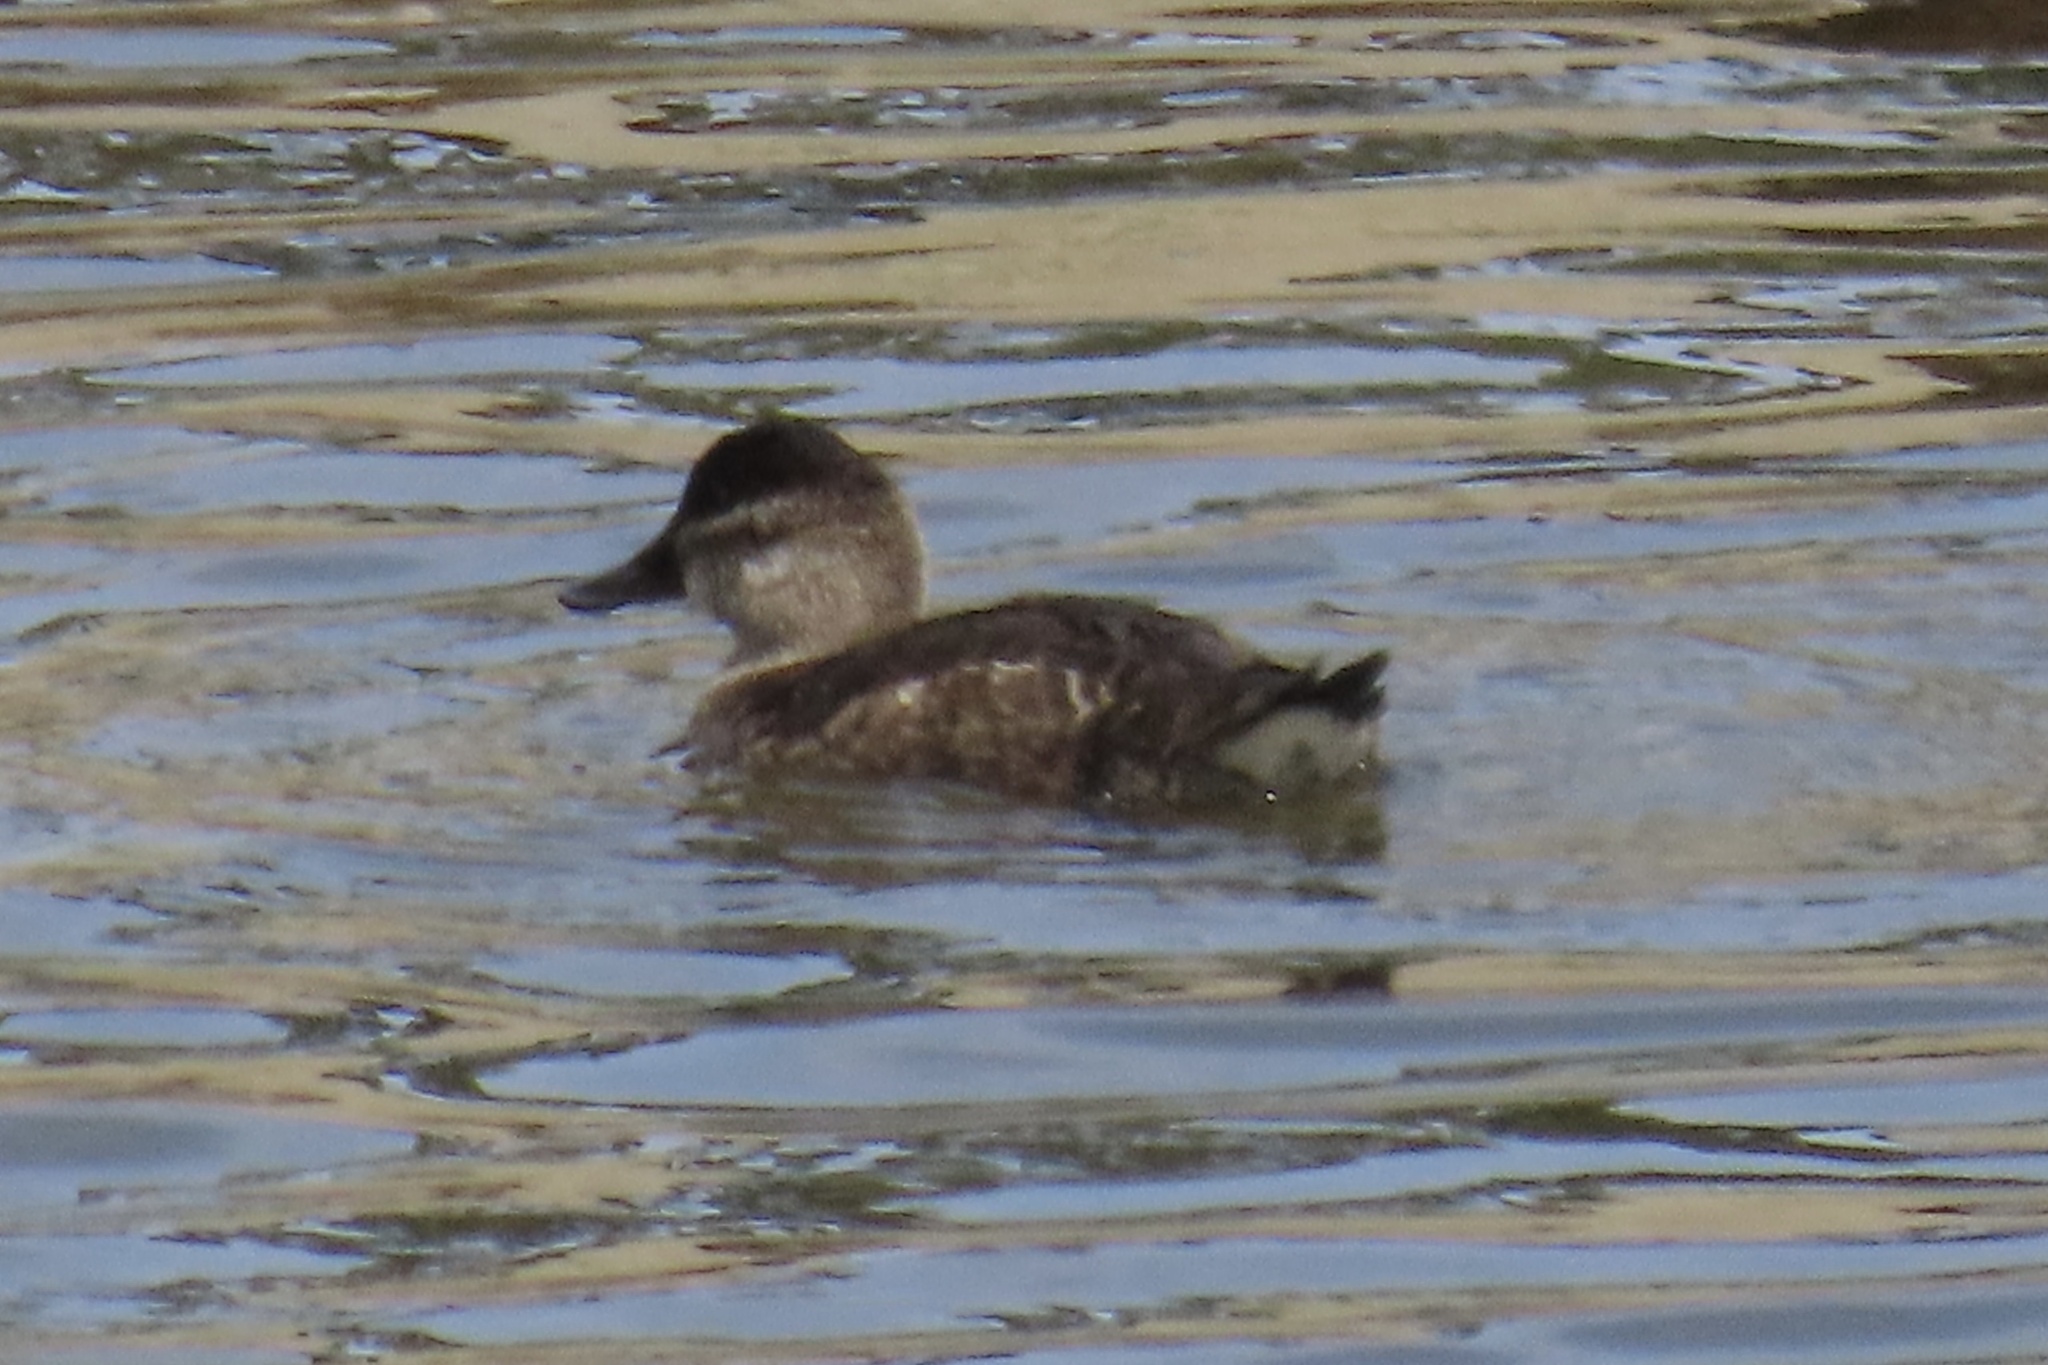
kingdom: Animalia
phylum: Chordata
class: Aves
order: Anseriformes
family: Anatidae
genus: Oxyura
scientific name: Oxyura jamaicensis
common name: Ruddy duck
